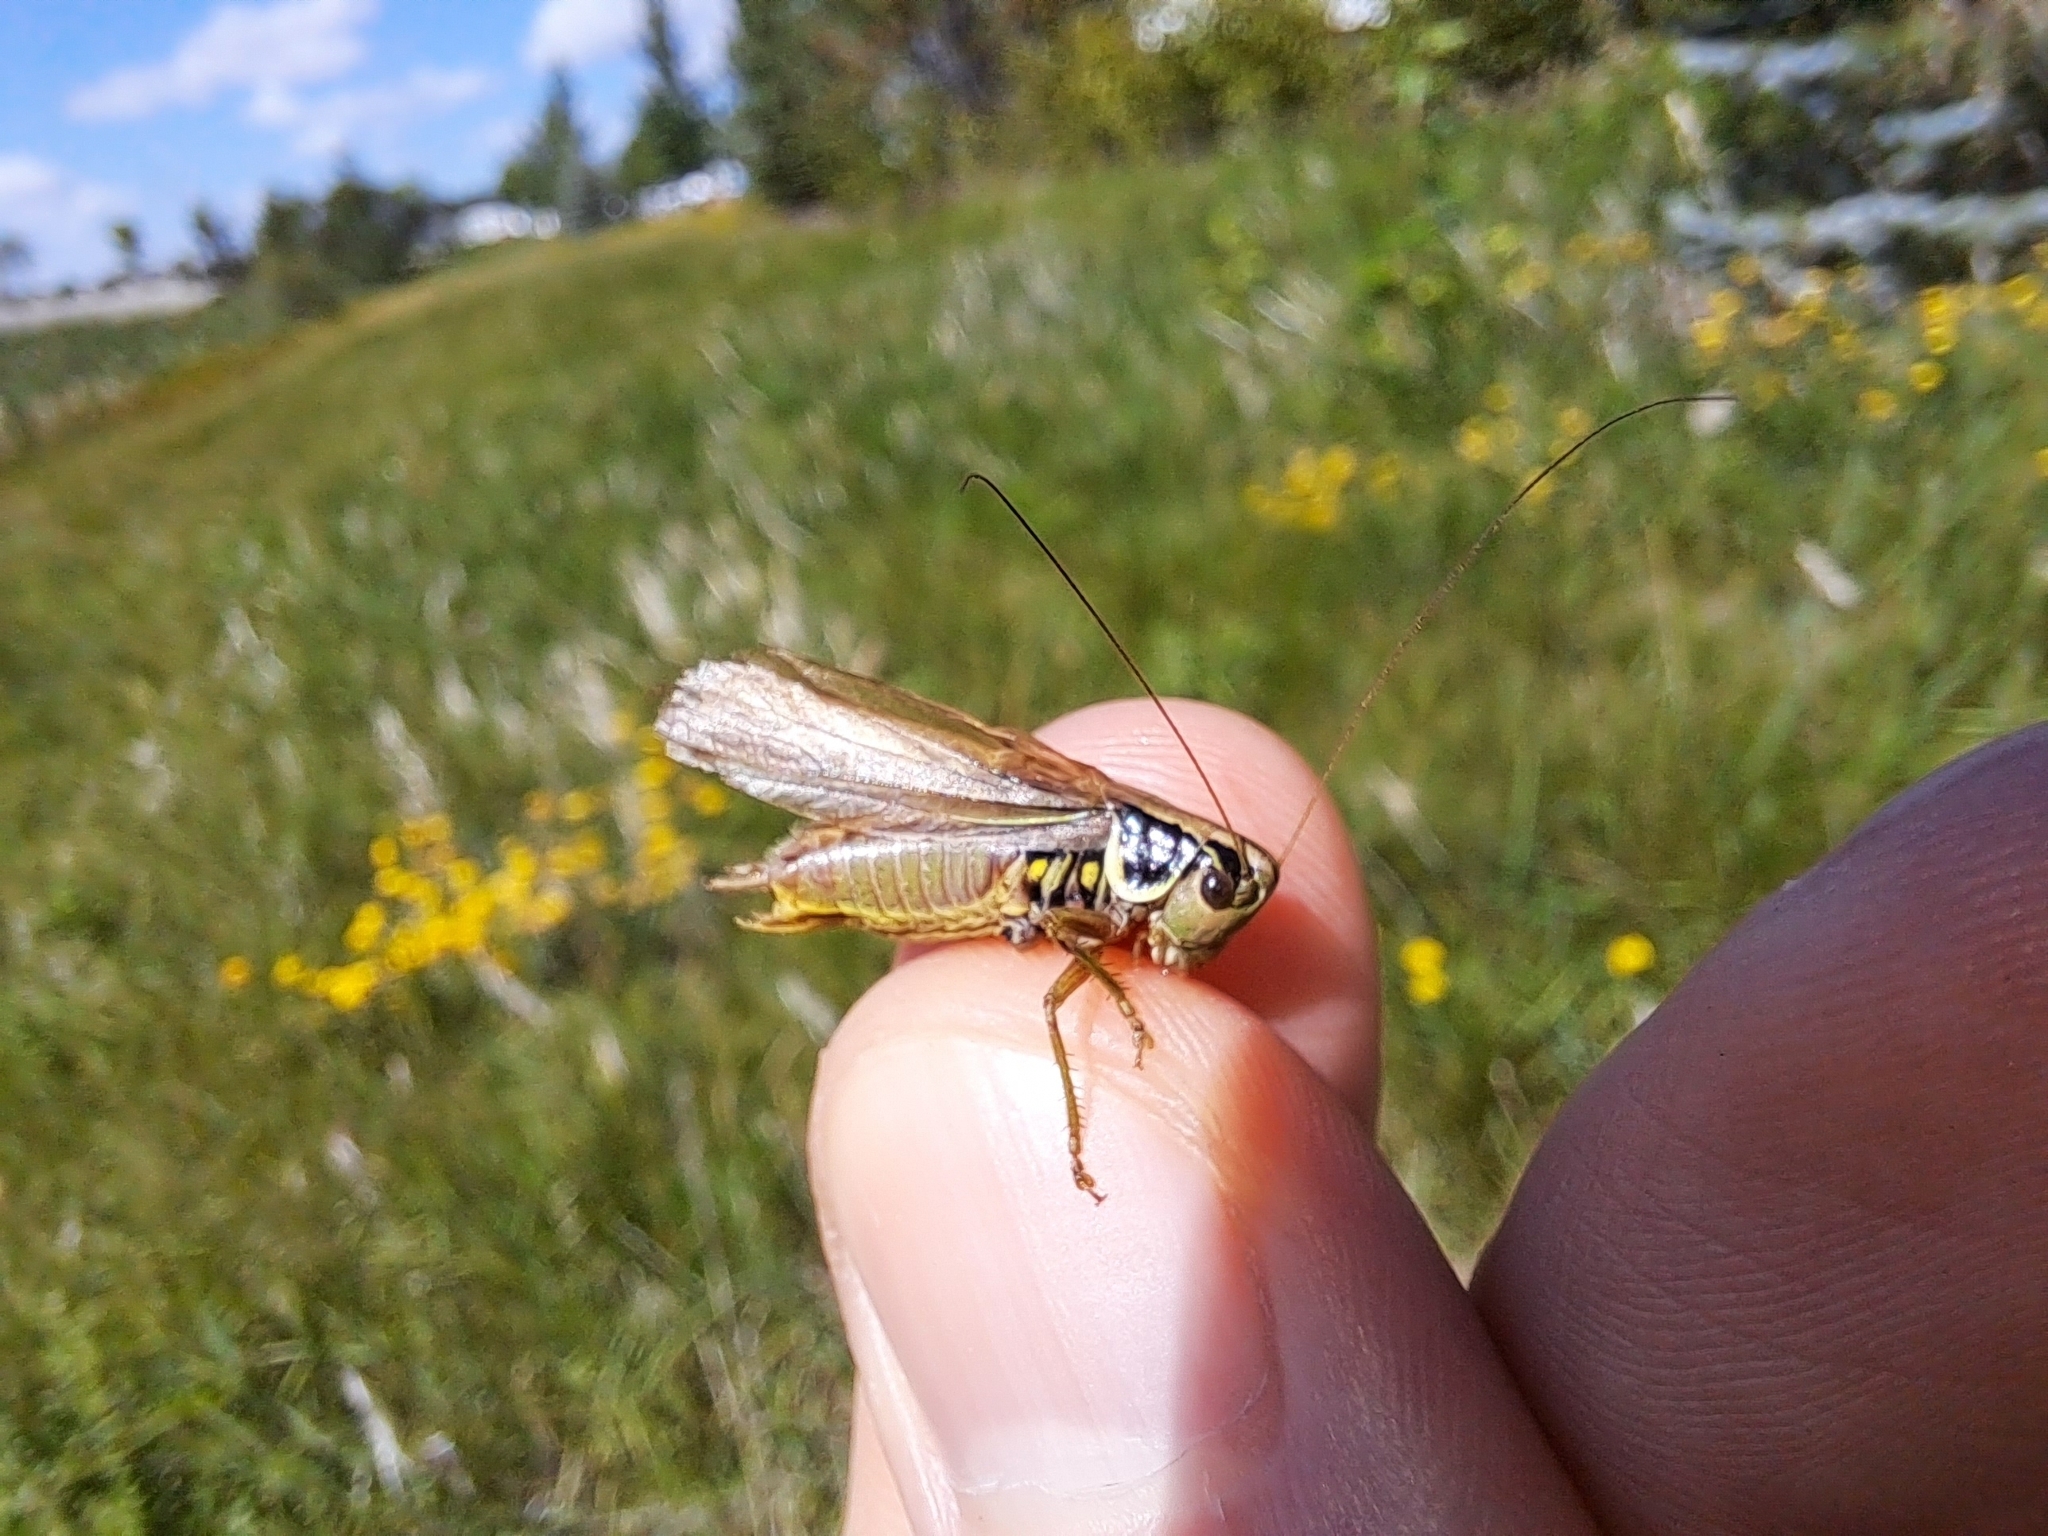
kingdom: Animalia
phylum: Arthropoda
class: Insecta
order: Orthoptera
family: Tettigoniidae
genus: Roeseliana
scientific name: Roeseliana roeselii
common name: Roesel's bush cricket
